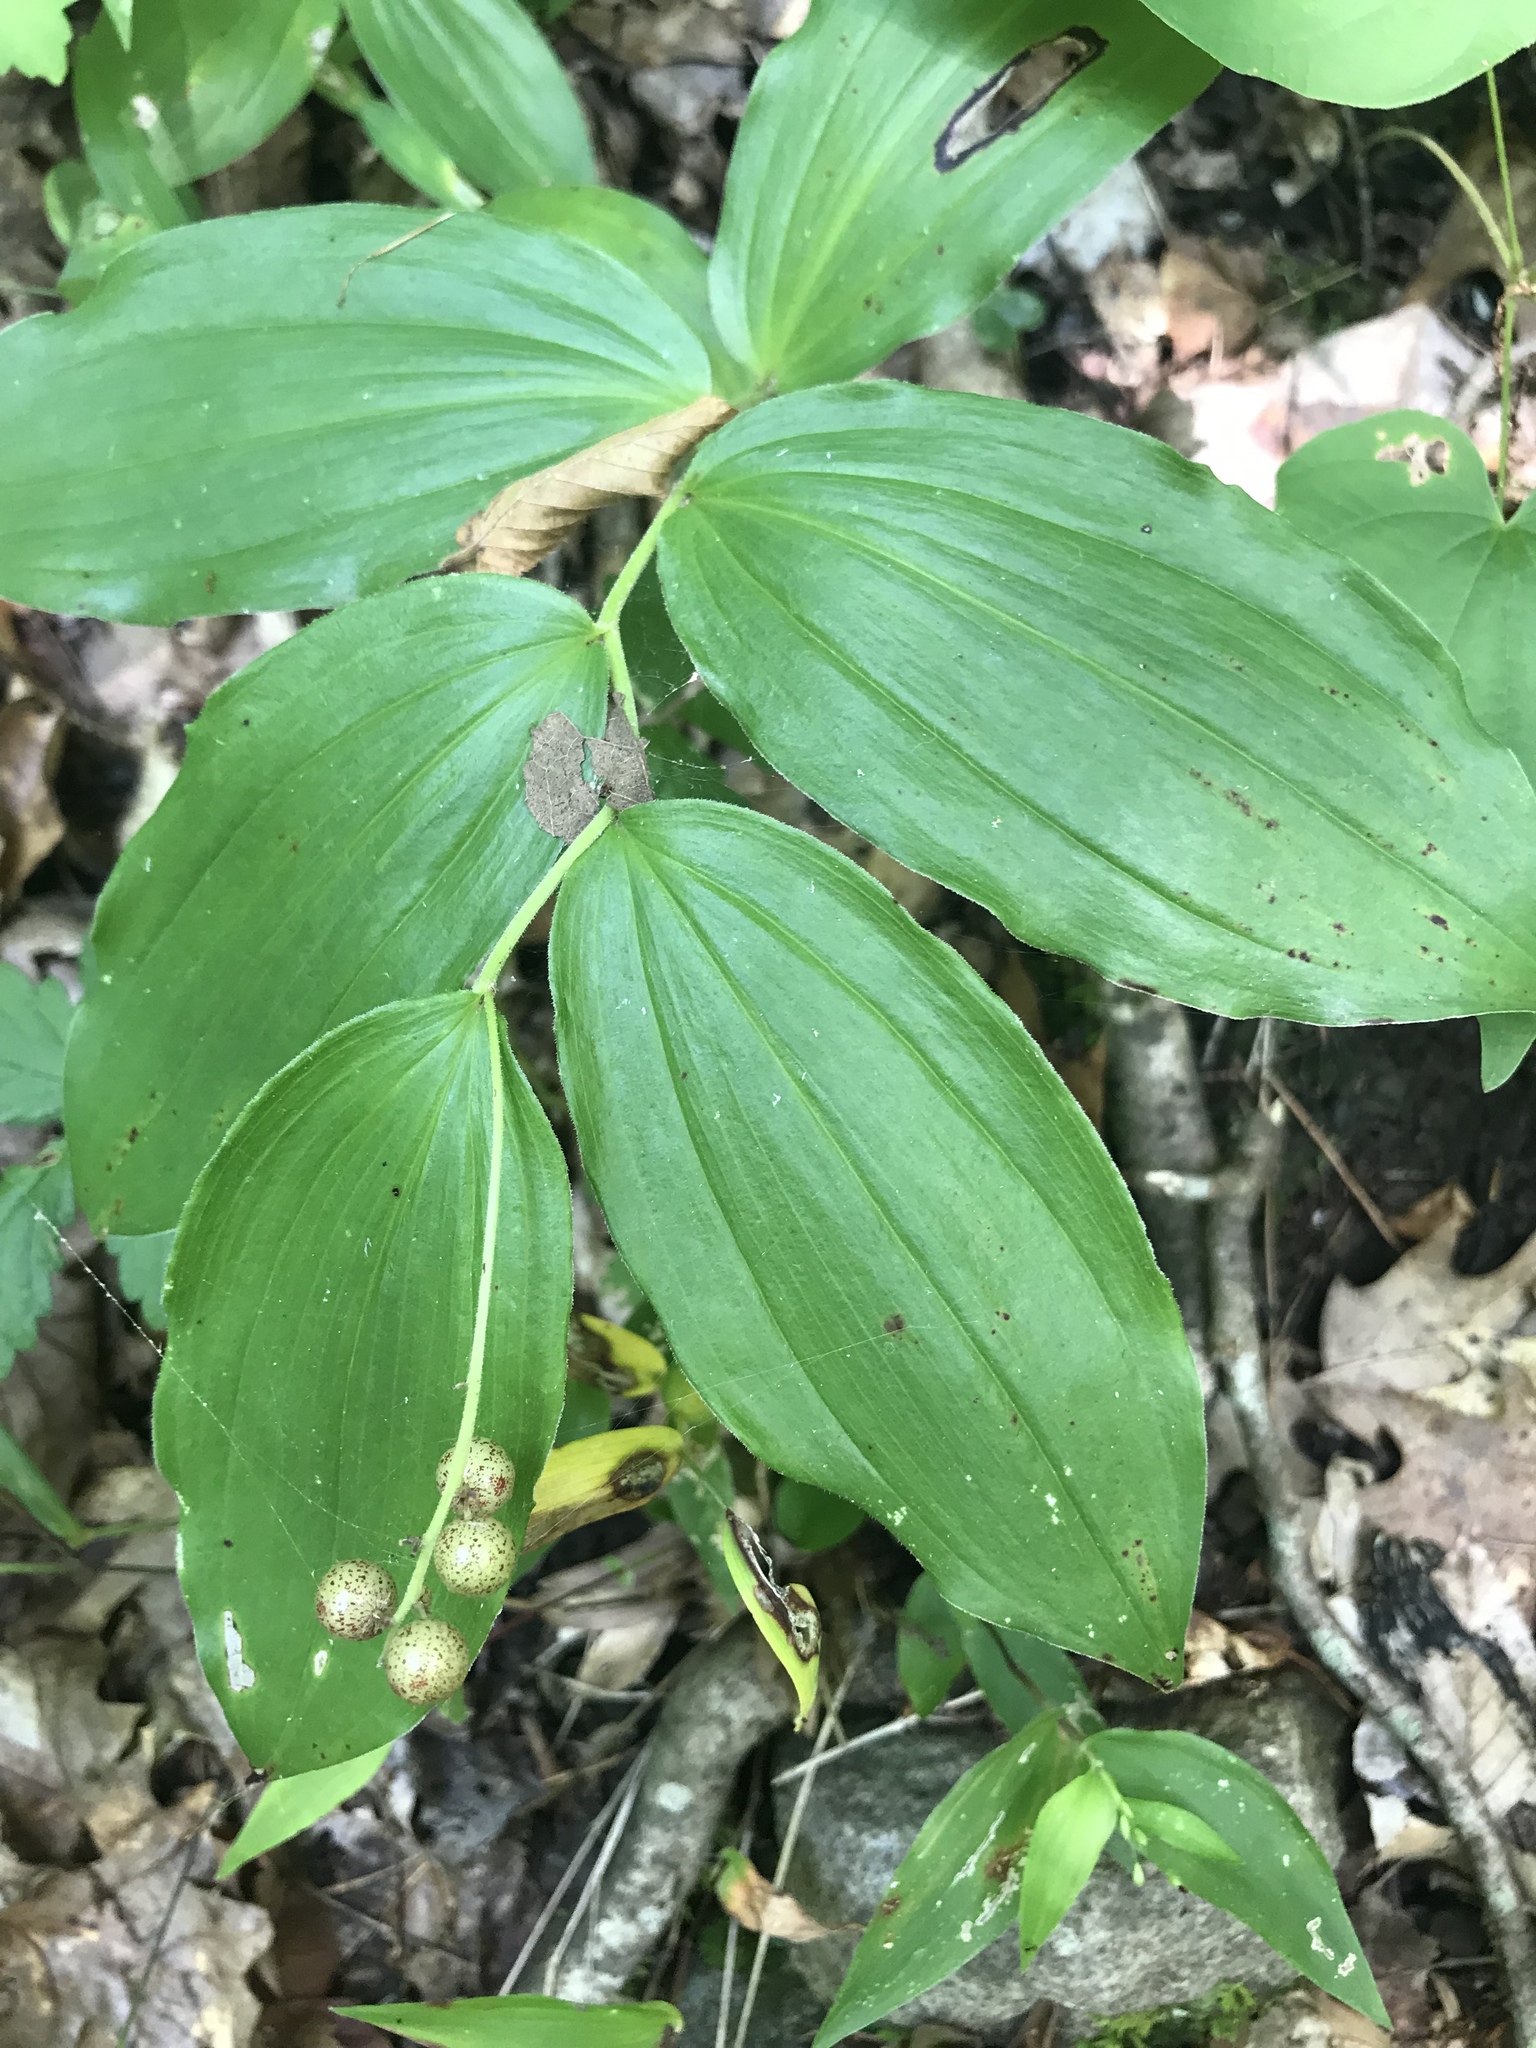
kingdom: Plantae
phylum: Tracheophyta
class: Liliopsida
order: Asparagales
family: Asparagaceae
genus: Maianthemum
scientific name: Maianthemum racemosum
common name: False spikenard
